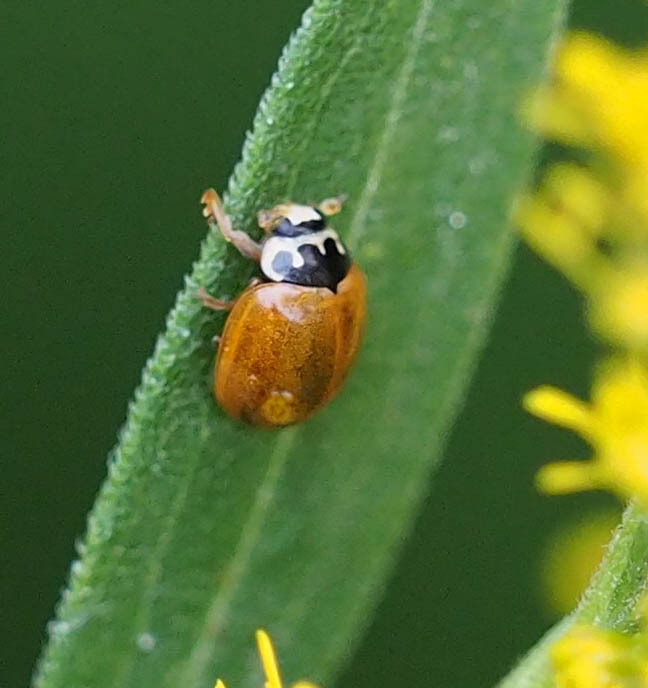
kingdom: Animalia
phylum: Arthropoda
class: Insecta
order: Coleoptera
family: Coccinellidae
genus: Cycloneda
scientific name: Cycloneda munda
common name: Polished lady beetle
